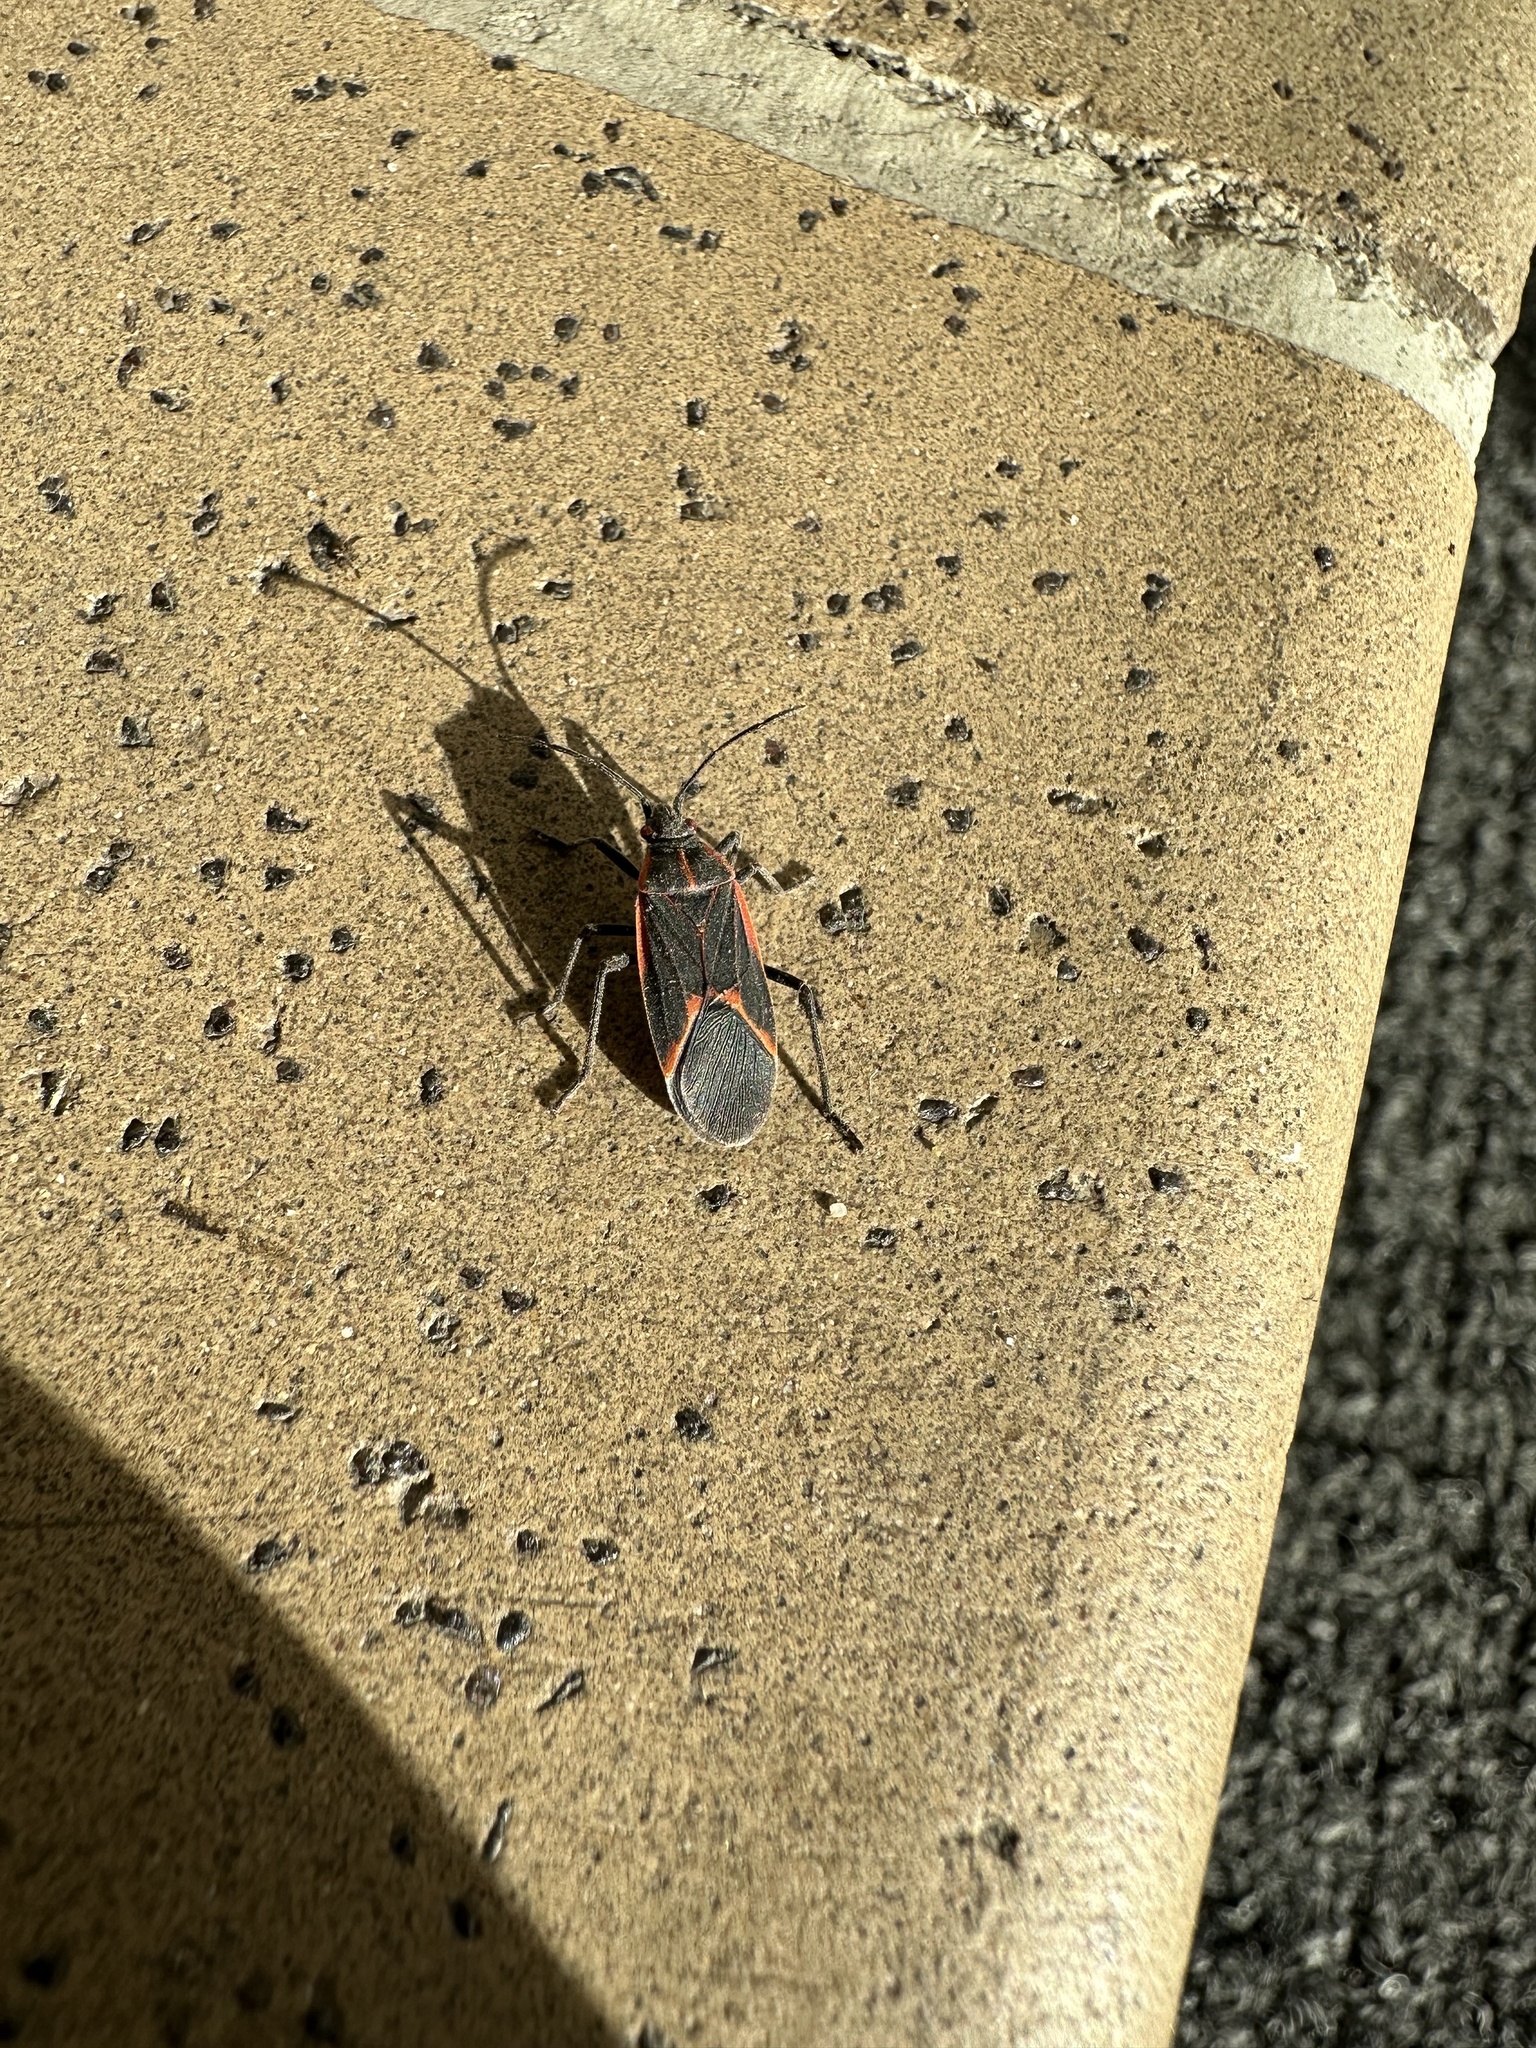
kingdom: Animalia
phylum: Arthropoda
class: Insecta
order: Hemiptera
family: Rhopalidae
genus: Boisea
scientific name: Boisea trivittata
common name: Boxelder bug
